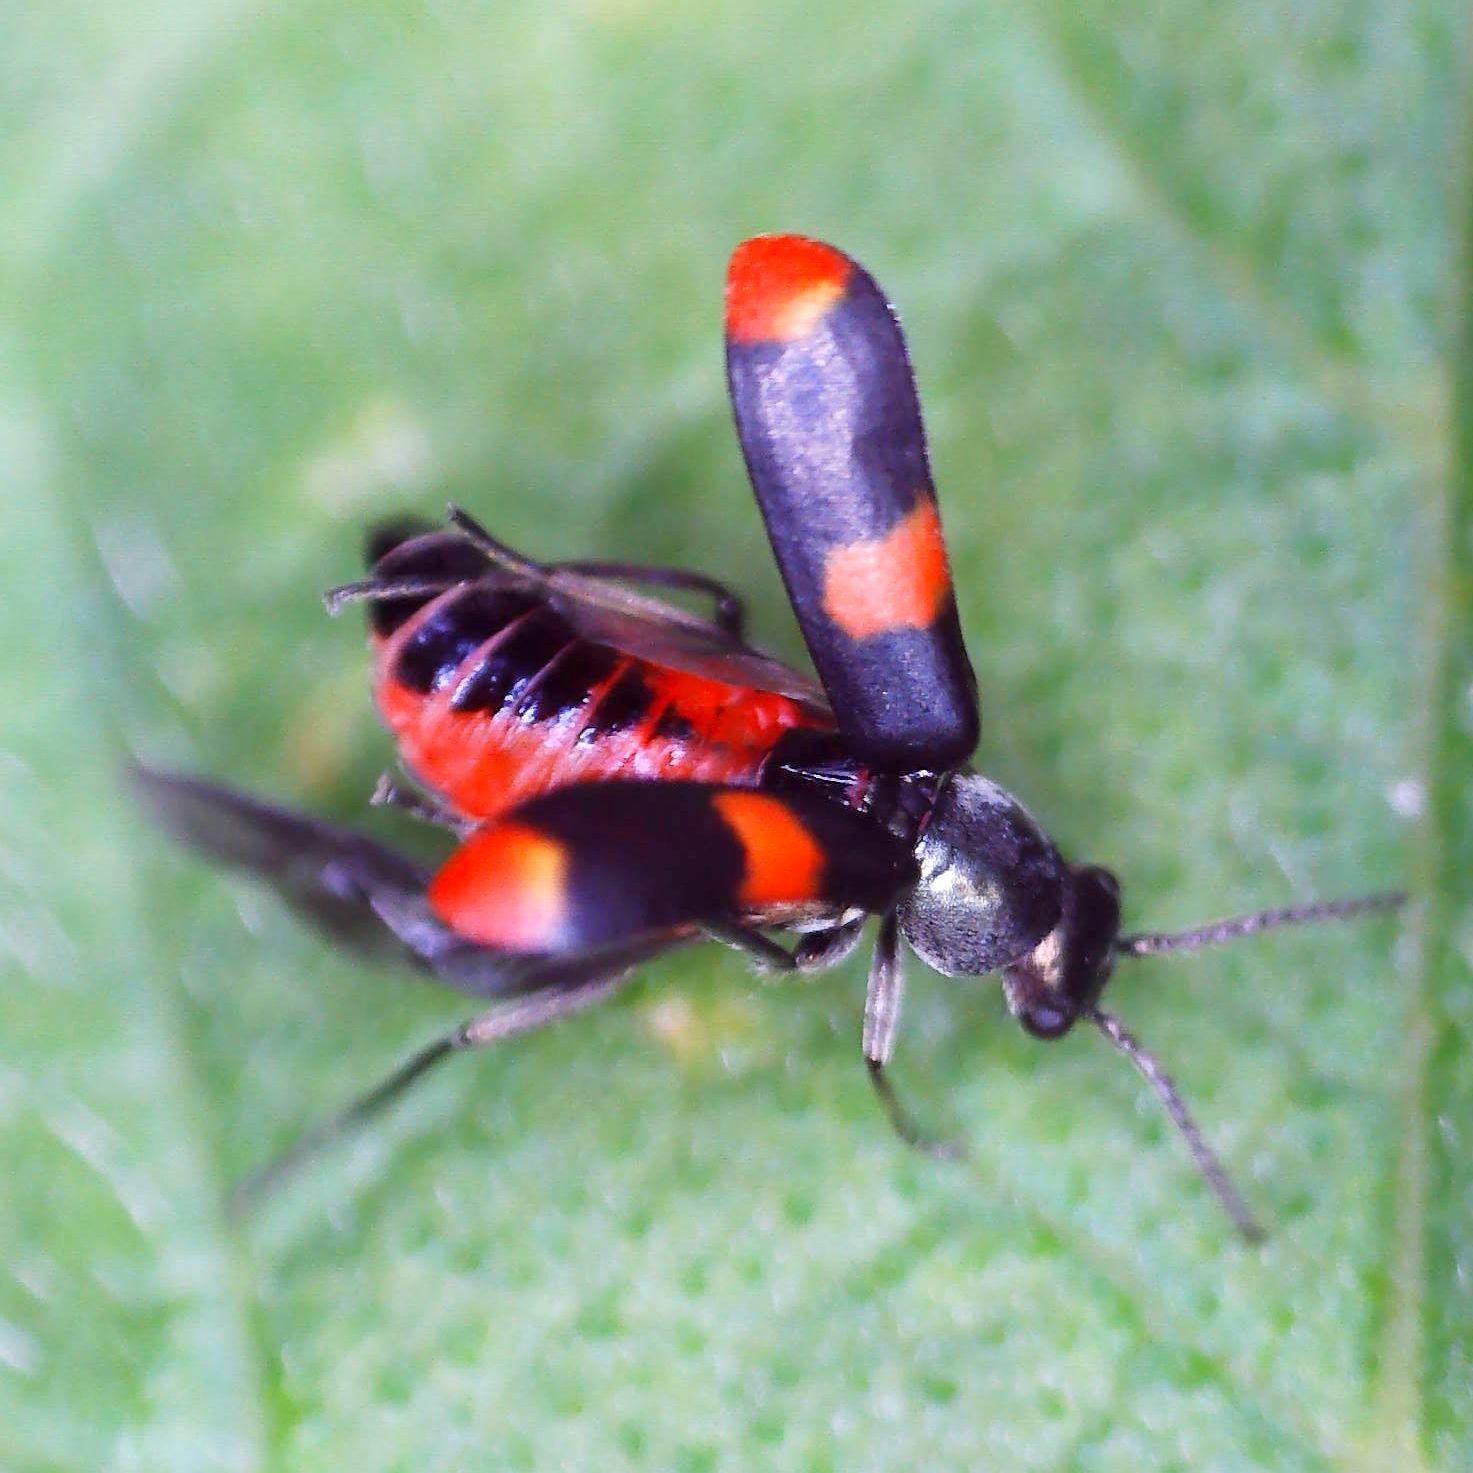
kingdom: Animalia
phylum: Arthropoda
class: Insecta
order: Coleoptera
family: Melyridae
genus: Anthocomus
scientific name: Anthocomus fasciatus
